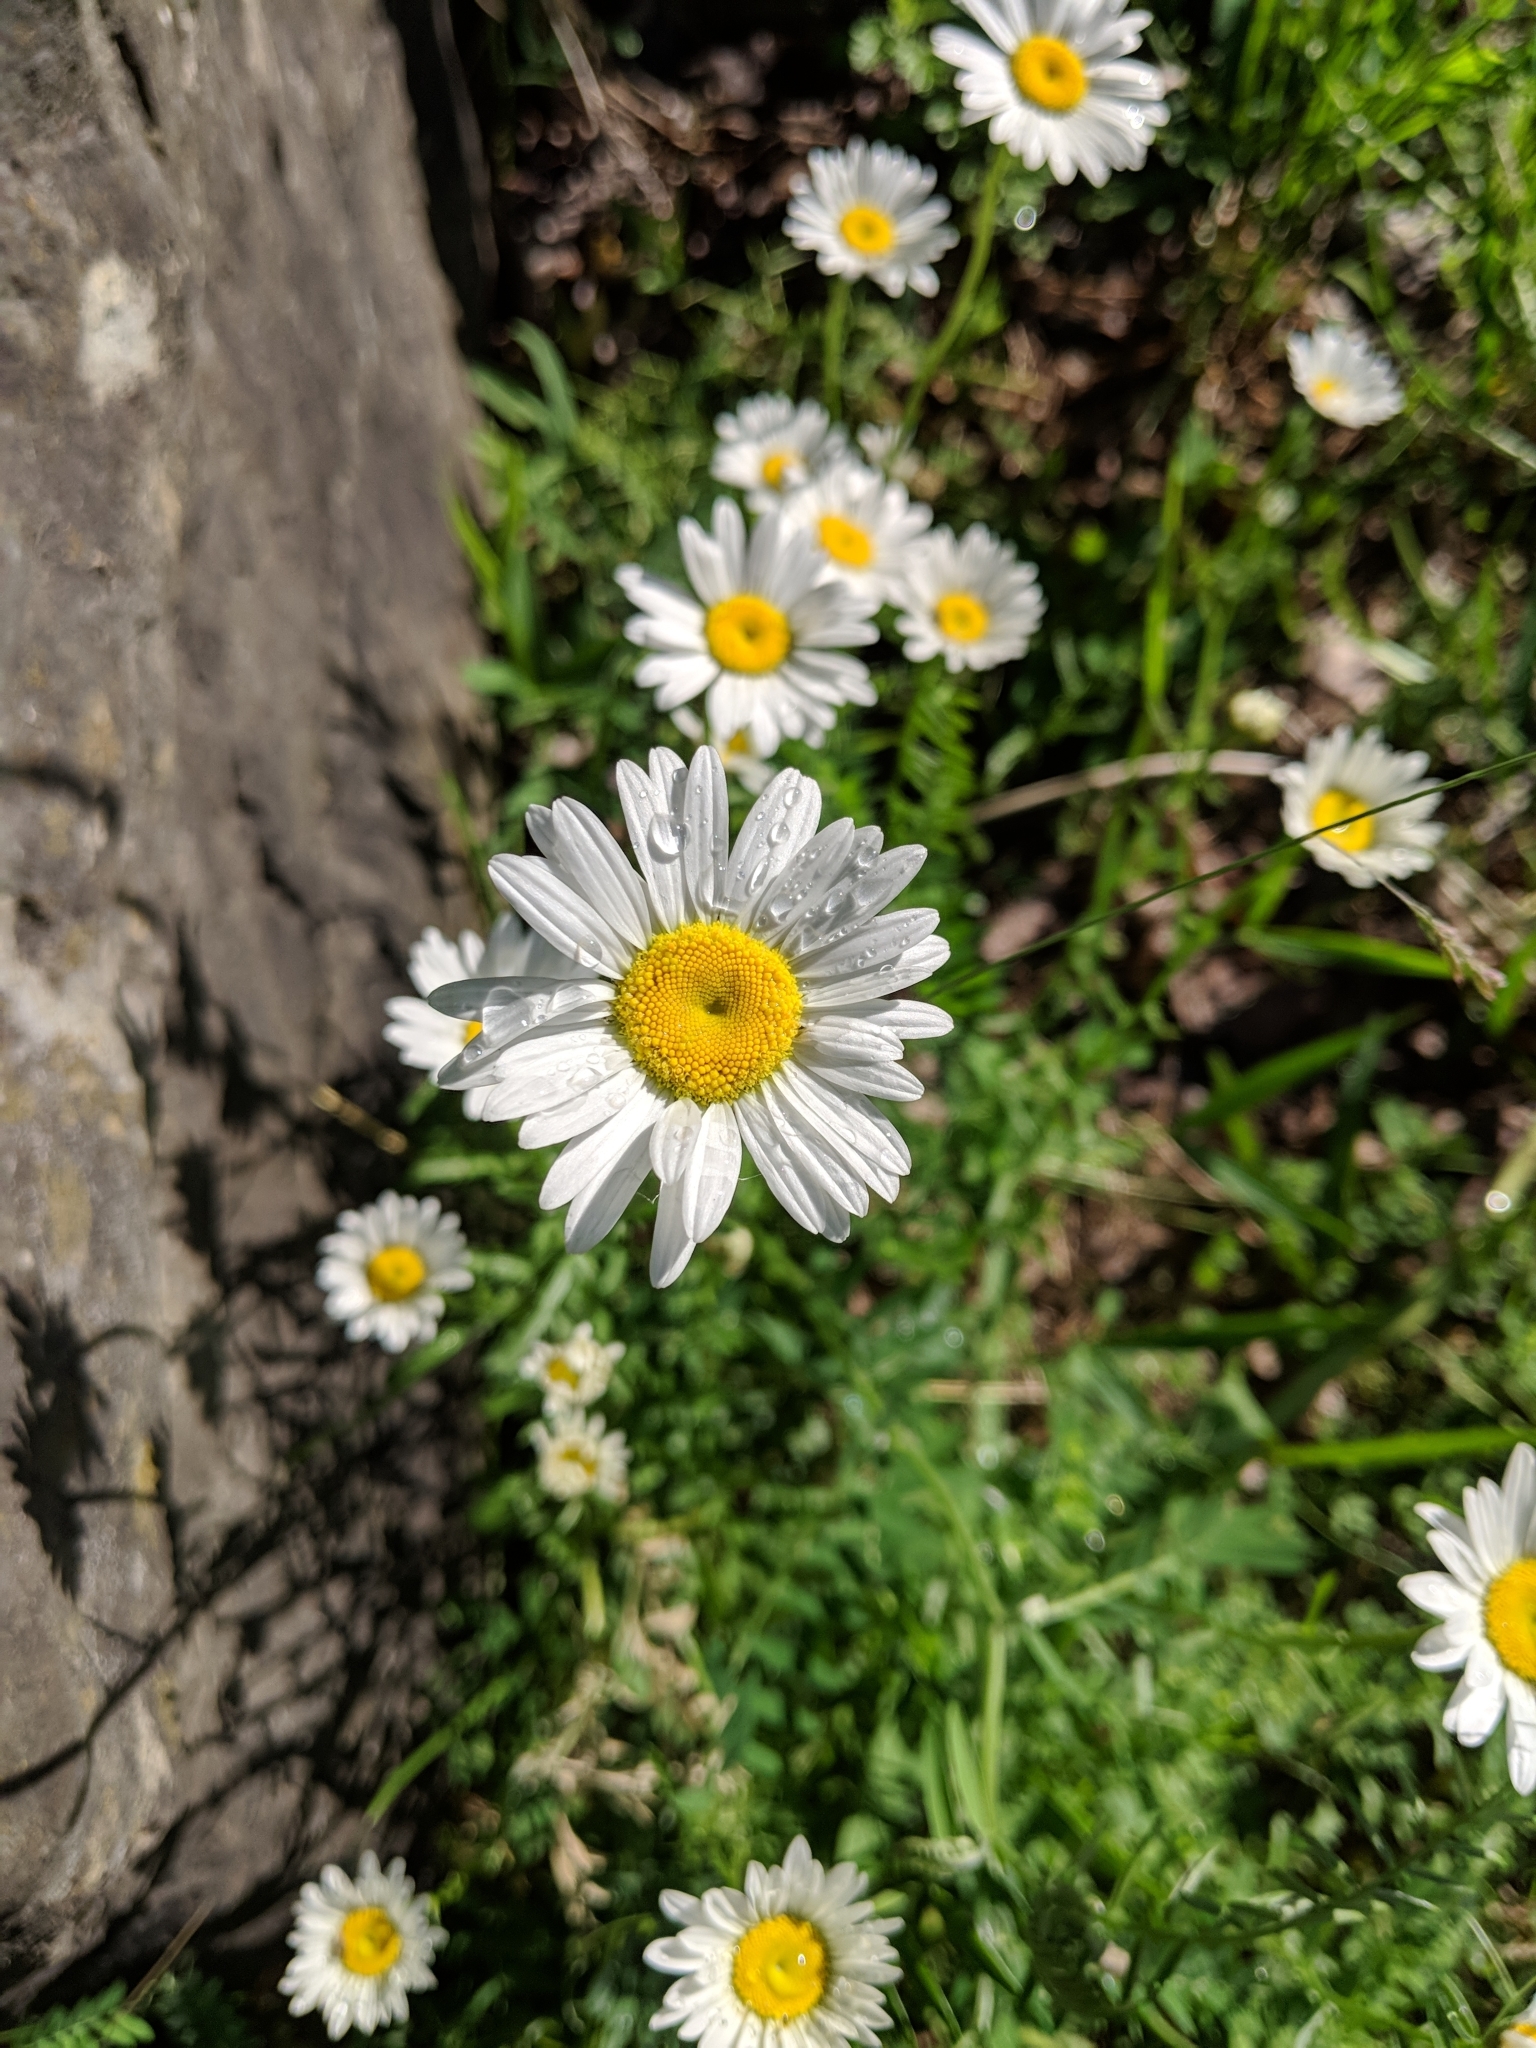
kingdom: Plantae
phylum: Tracheophyta
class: Magnoliopsida
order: Asterales
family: Asteraceae
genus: Leucanthemum
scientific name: Leucanthemum vulgare
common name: Oxeye daisy
